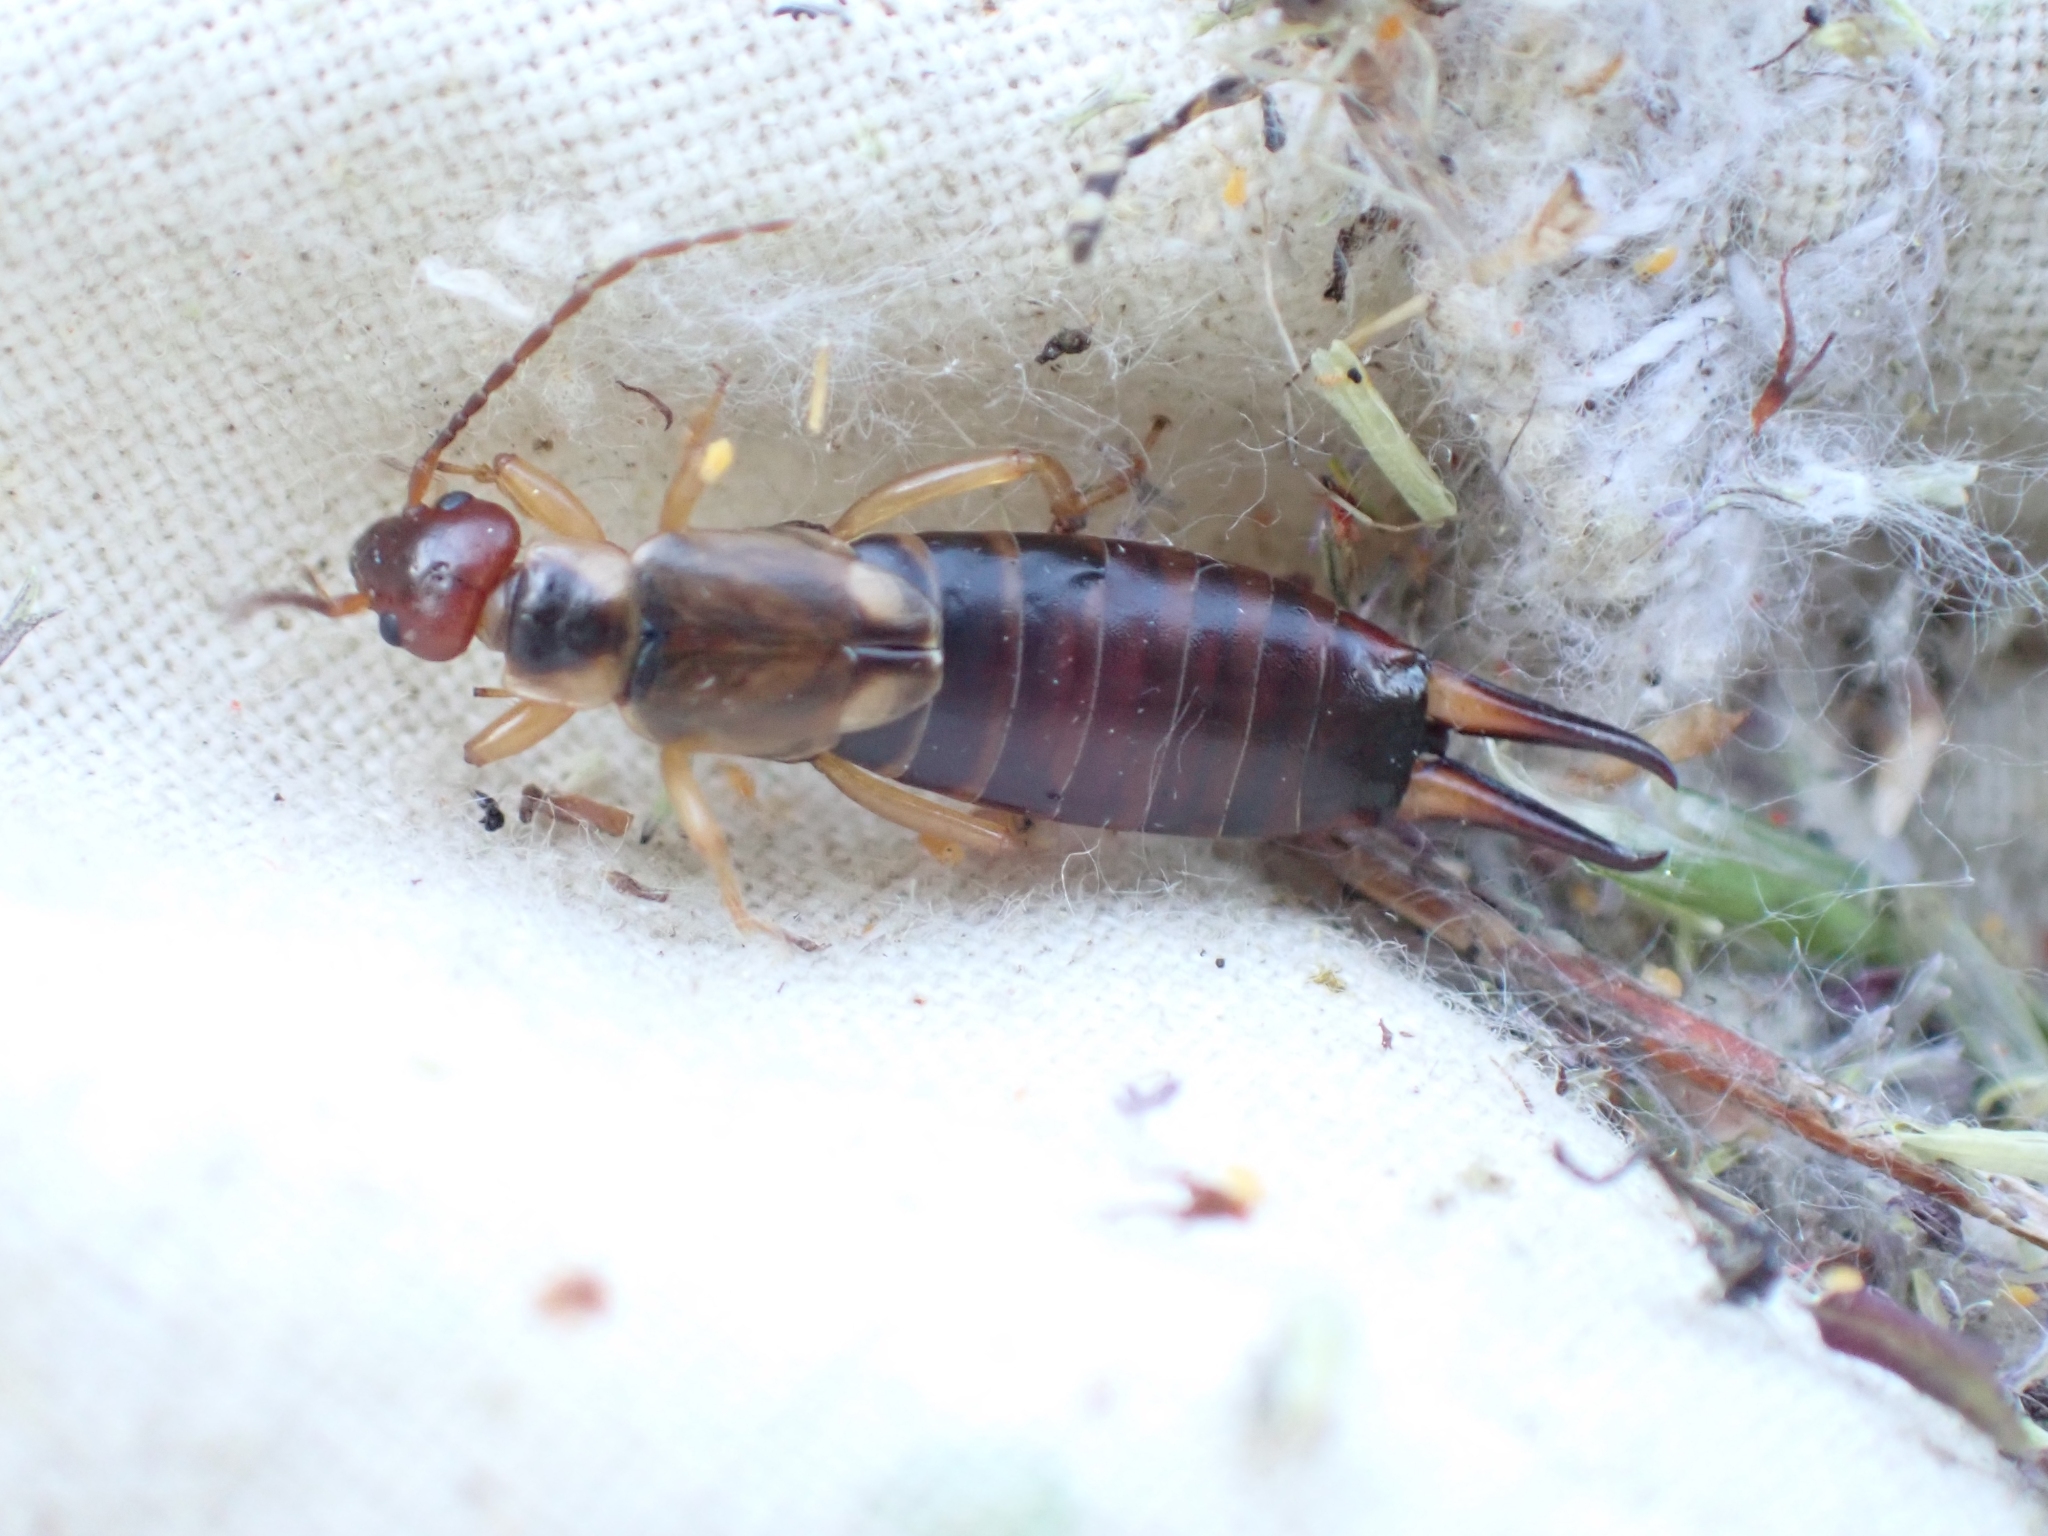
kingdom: Animalia
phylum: Arthropoda
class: Insecta
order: Dermaptera
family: Forficulidae
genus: Forficula
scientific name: Forficula
